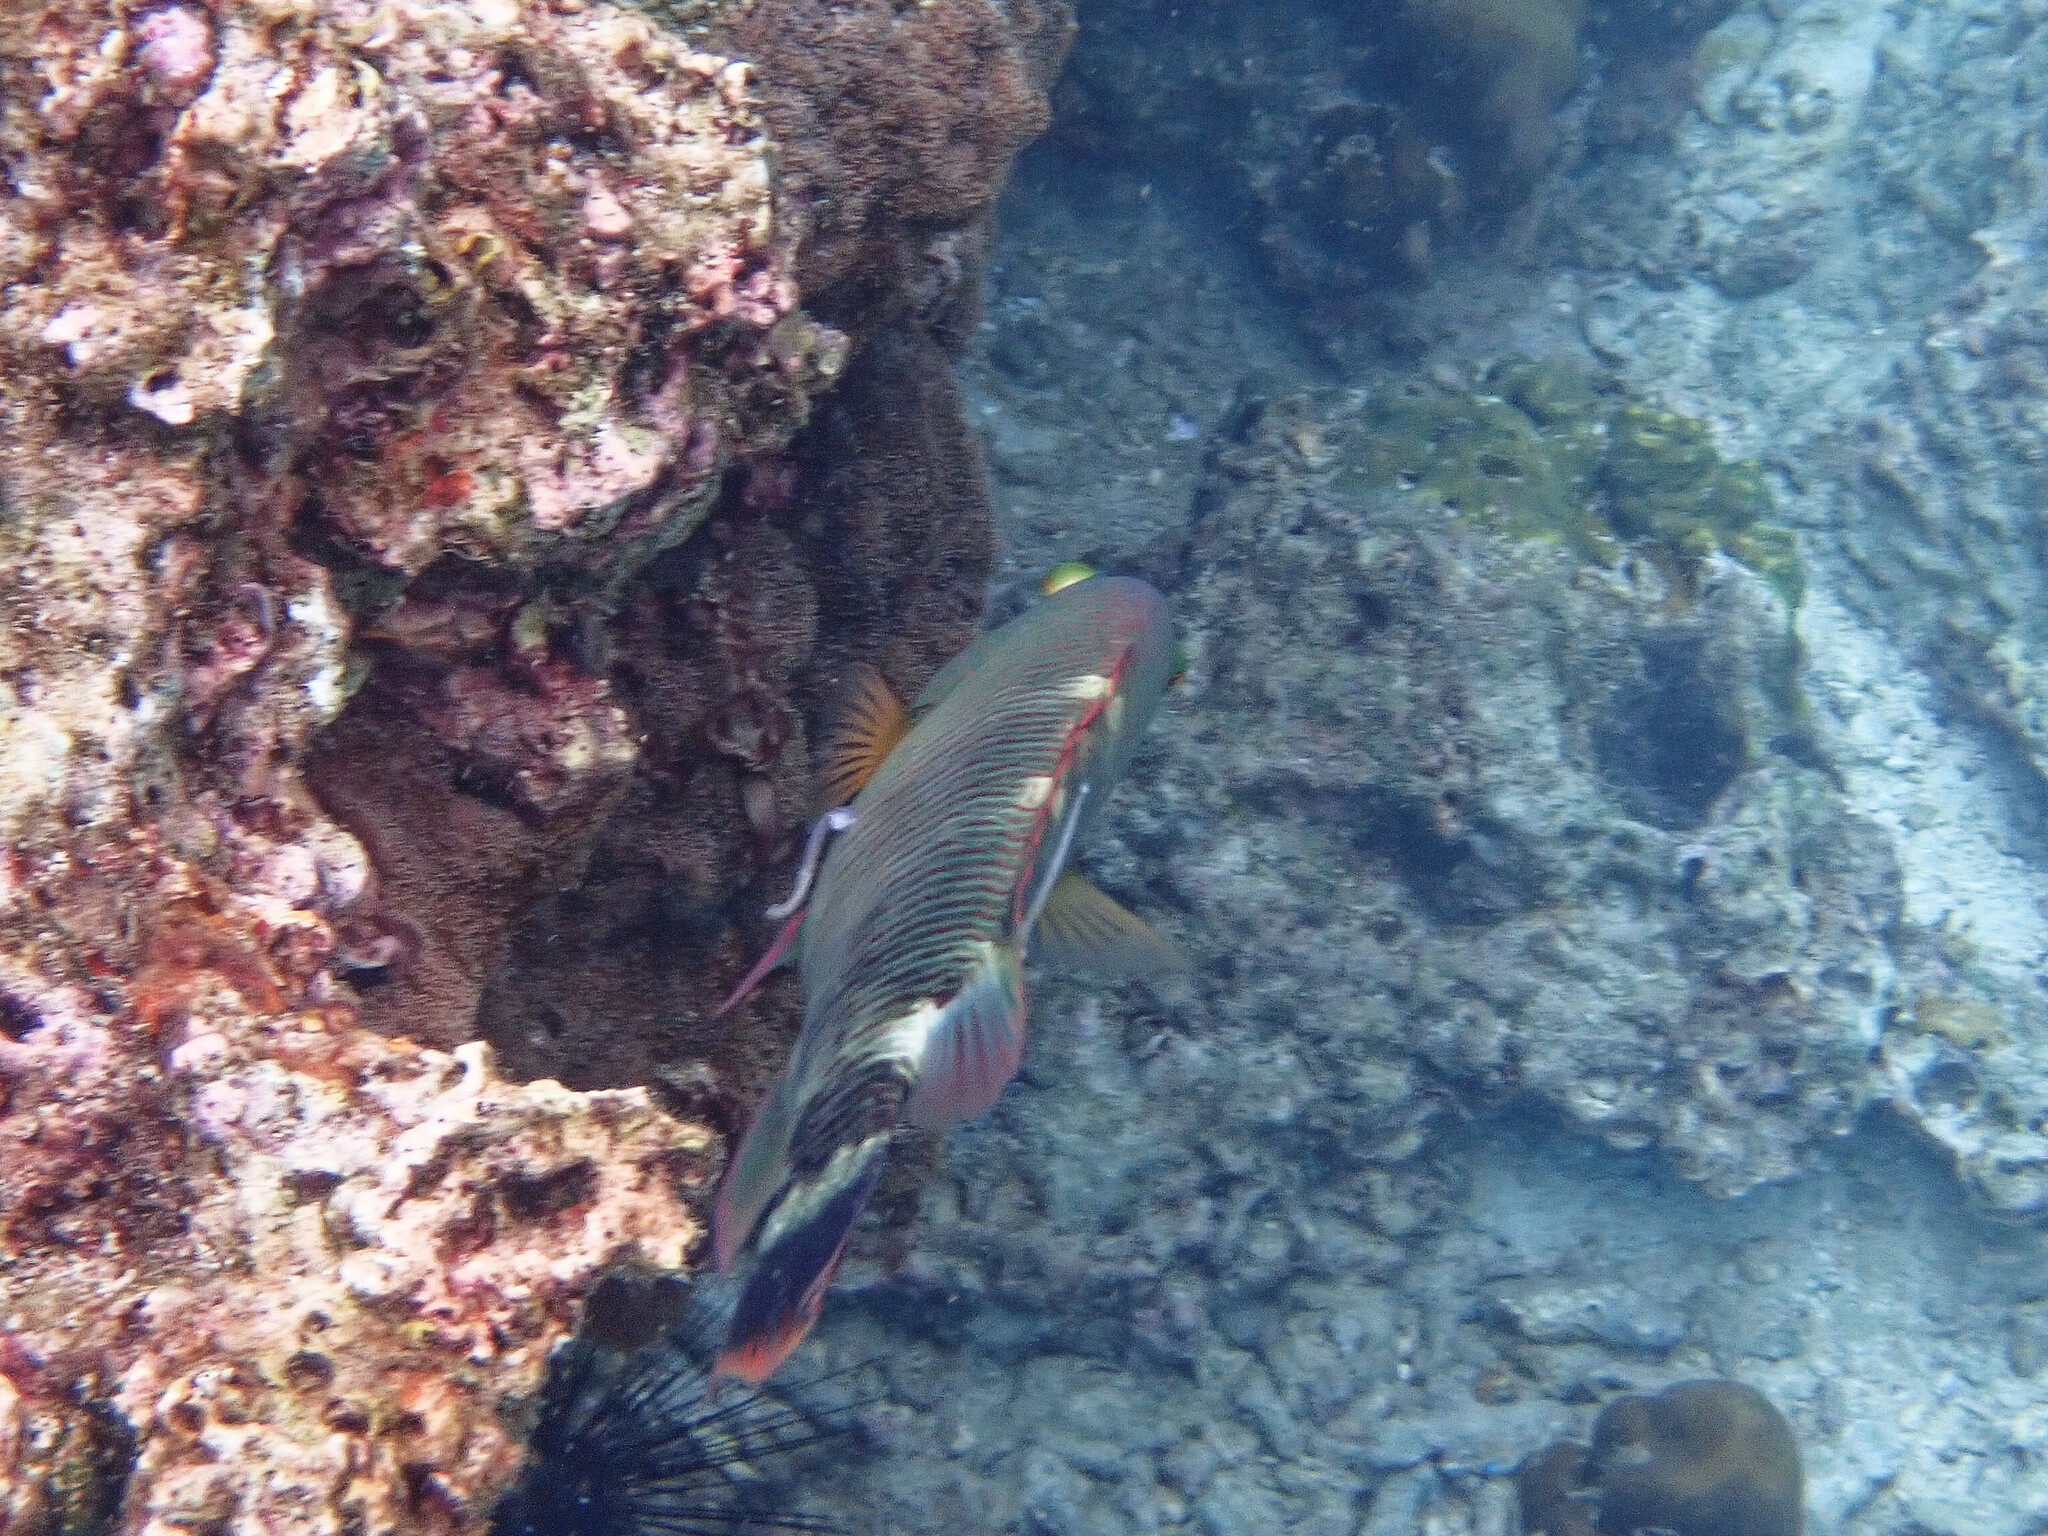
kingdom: Animalia
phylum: Chordata
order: Perciformes
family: Labridae
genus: Cheilinus
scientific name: Cheilinus trilobatus
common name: Tripletail maori wrasse
